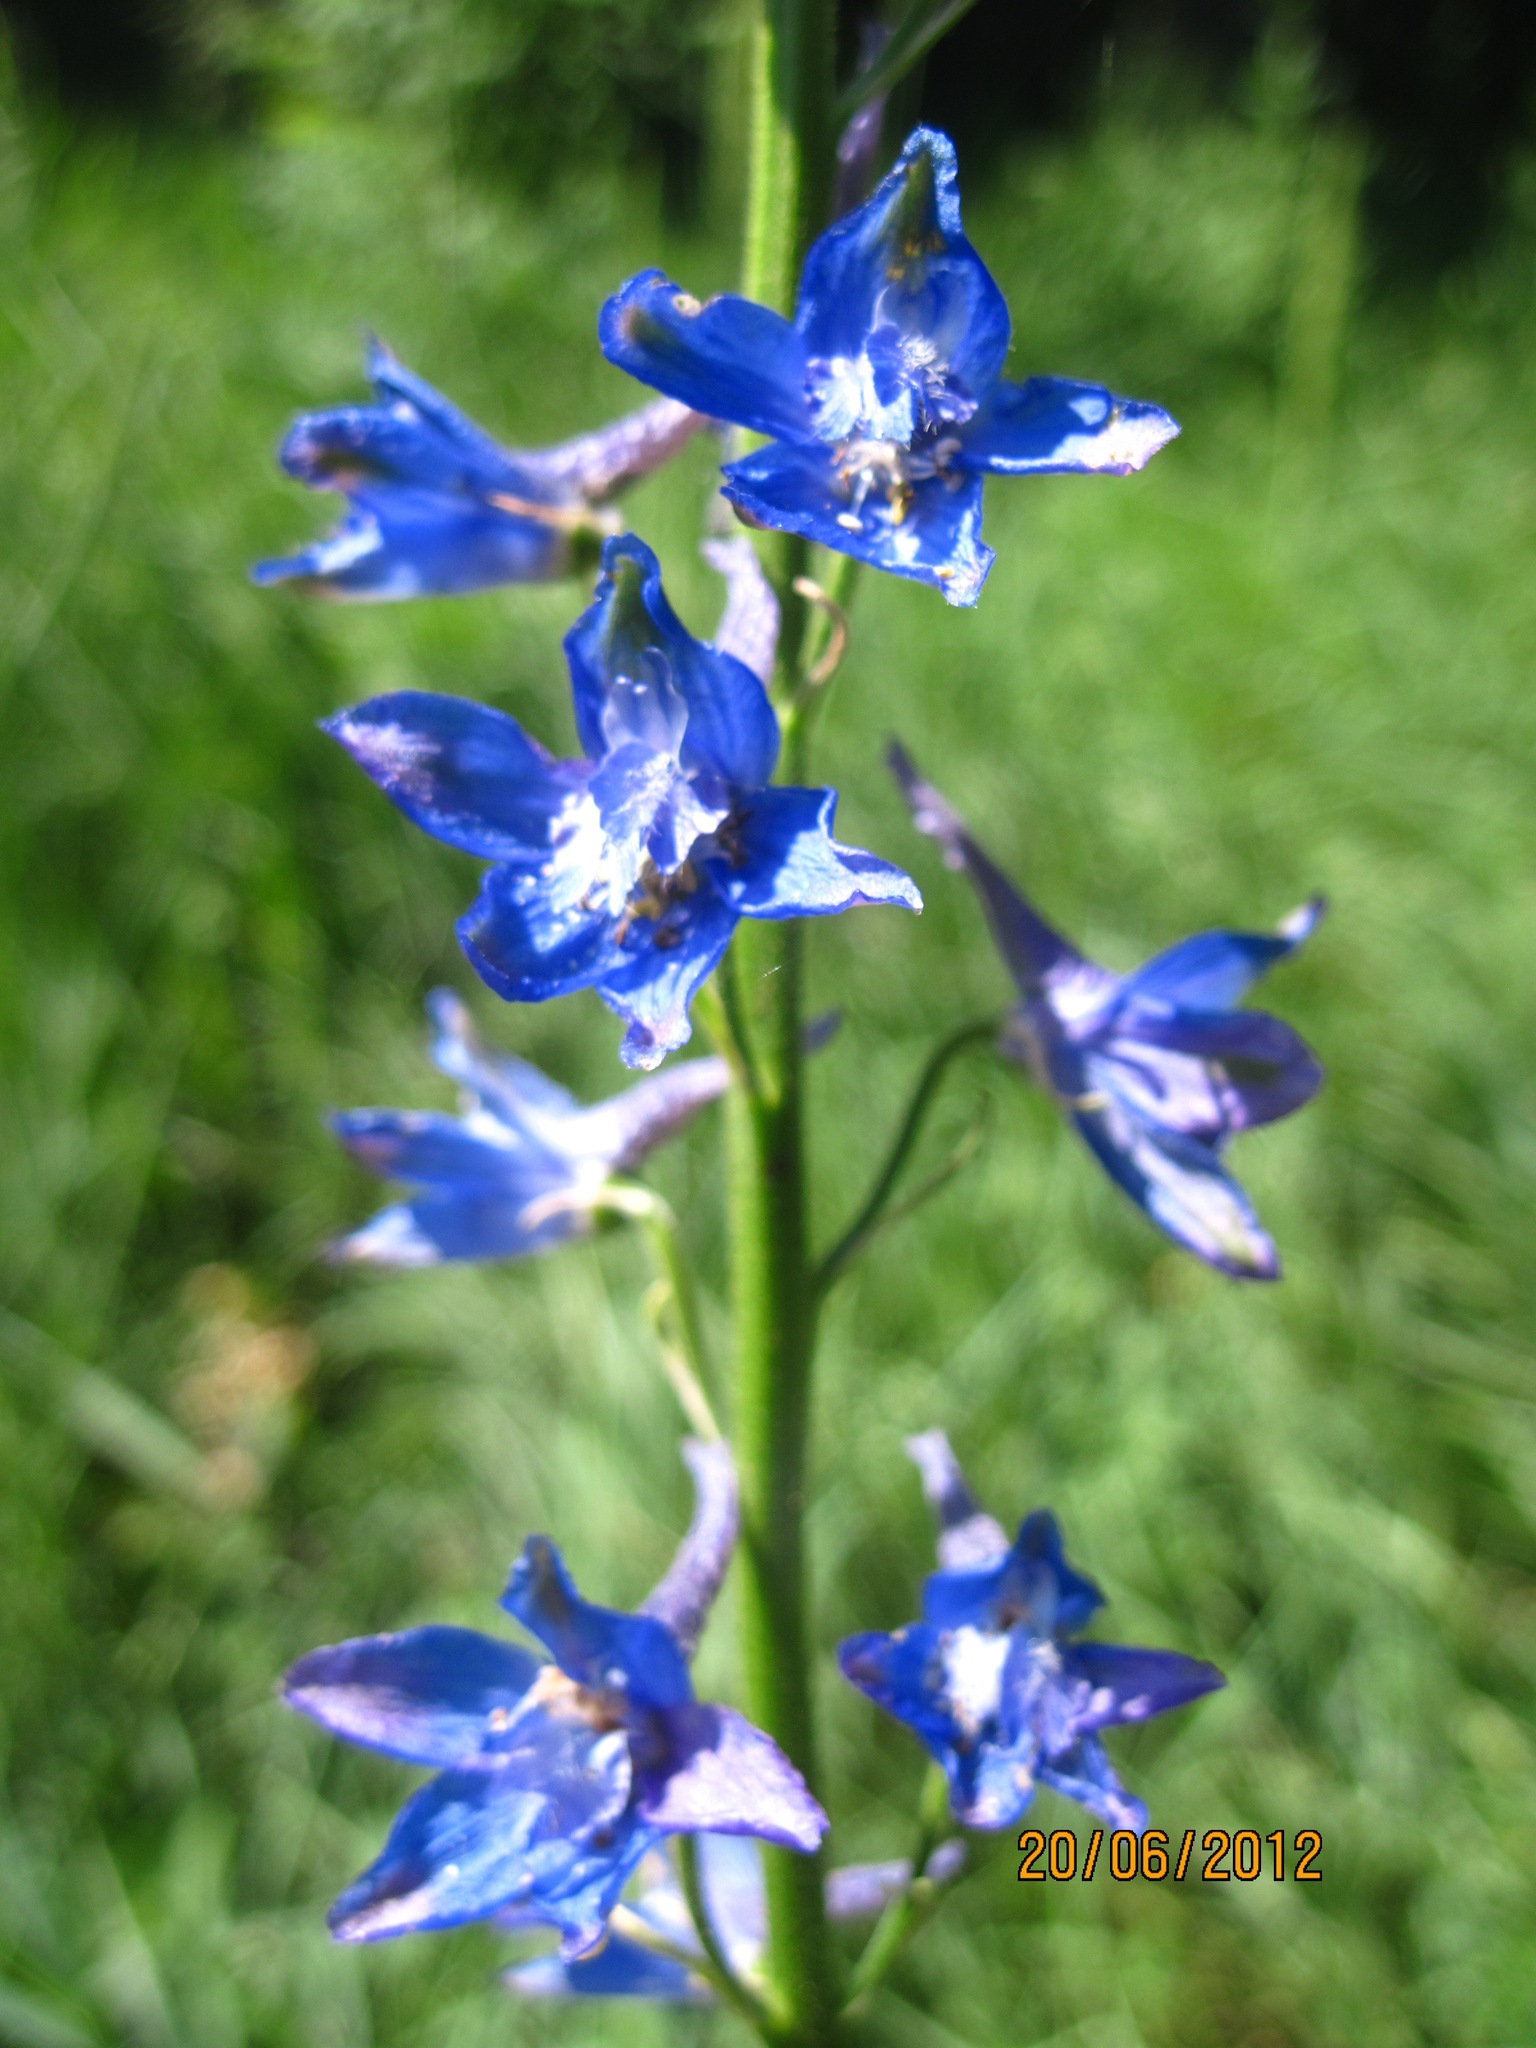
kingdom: Plantae
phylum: Tracheophyta
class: Magnoliopsida
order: Ranunculales
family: Ranunculaceae
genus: Delphinium
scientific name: Delphinium schmalhausenii
